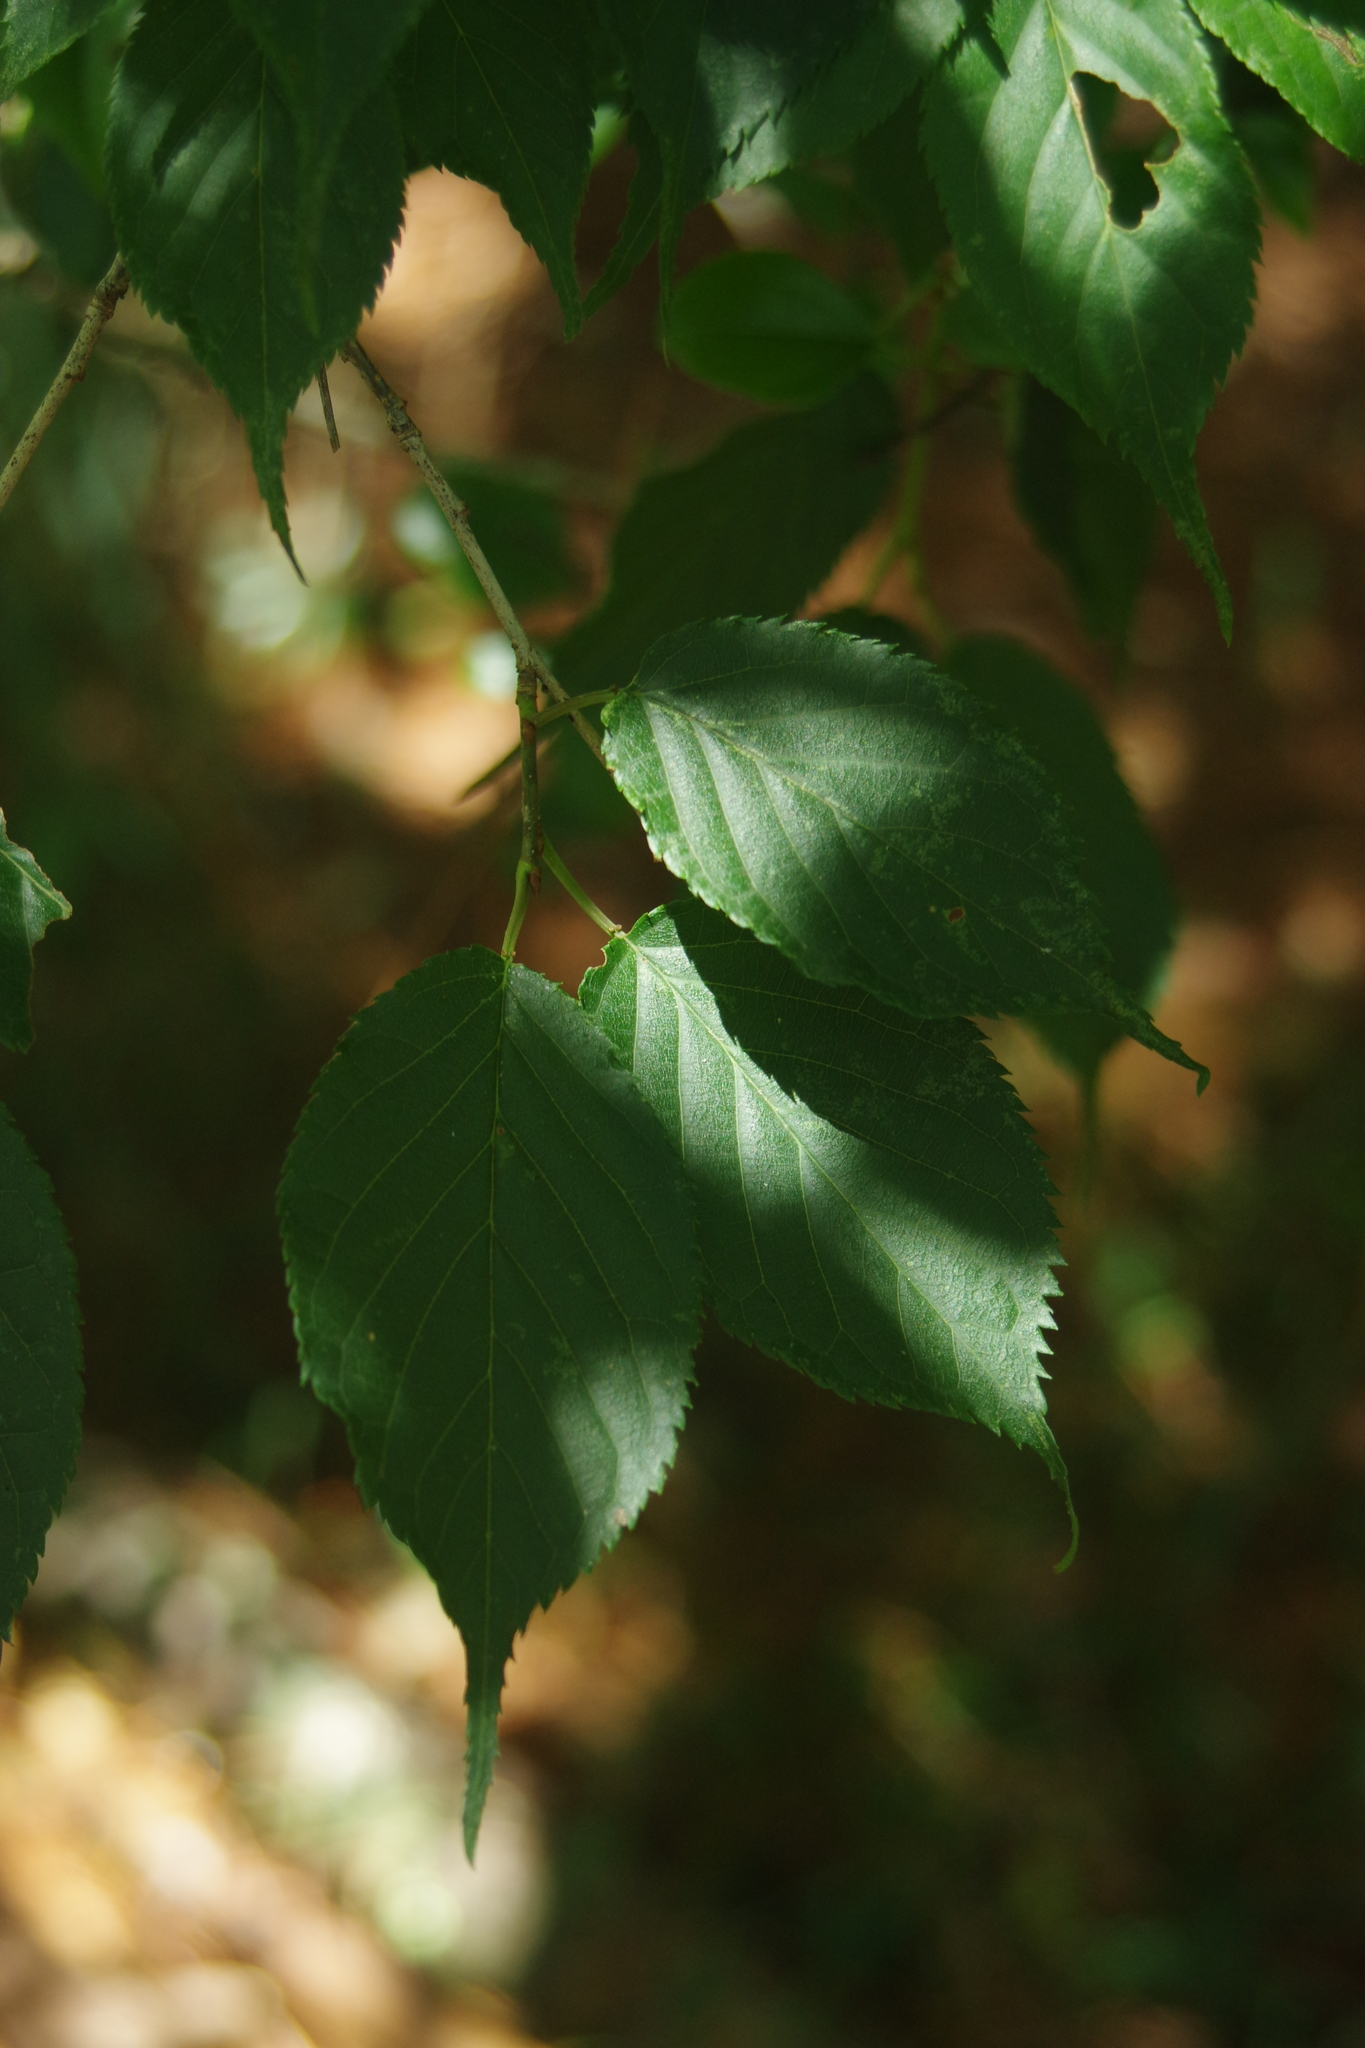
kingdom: Plantae
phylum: Tracheophyta
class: Magnoliopsida
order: Rosales
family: Rosaceae
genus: Prunus
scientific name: Prunus transarisanensis
